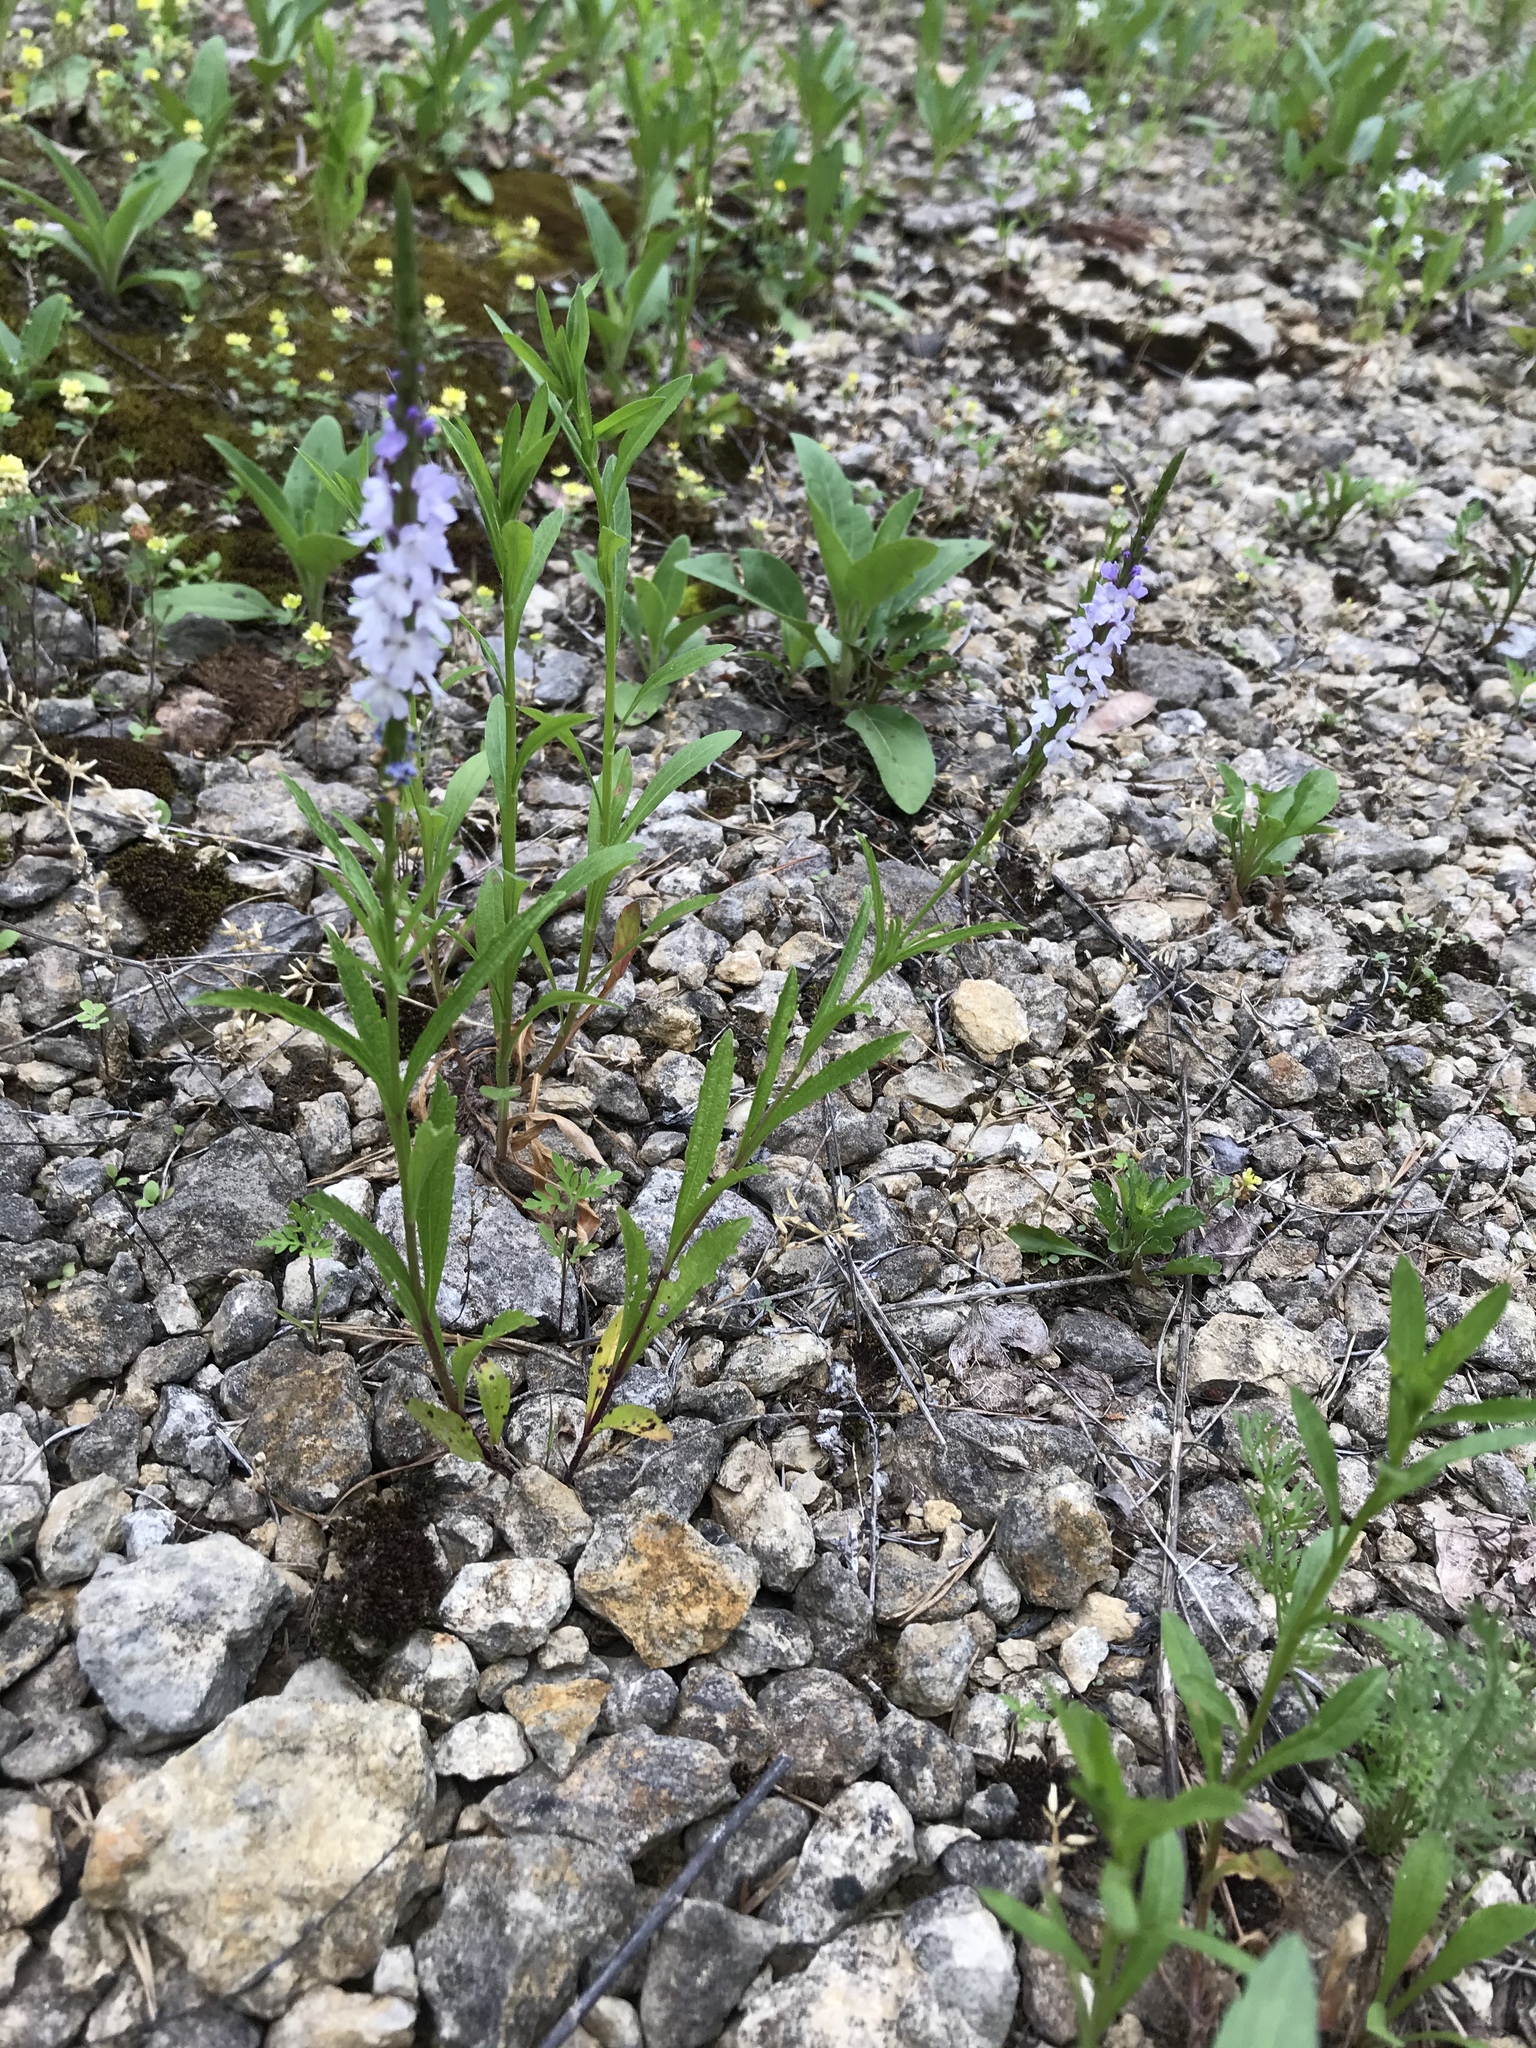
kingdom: Plantae
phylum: Tracheophyta
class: Magnoliopsida
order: Lamiales
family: Verbenaceae
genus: Verbena
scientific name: Verbena simplex
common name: Narrow-leaf vervain
